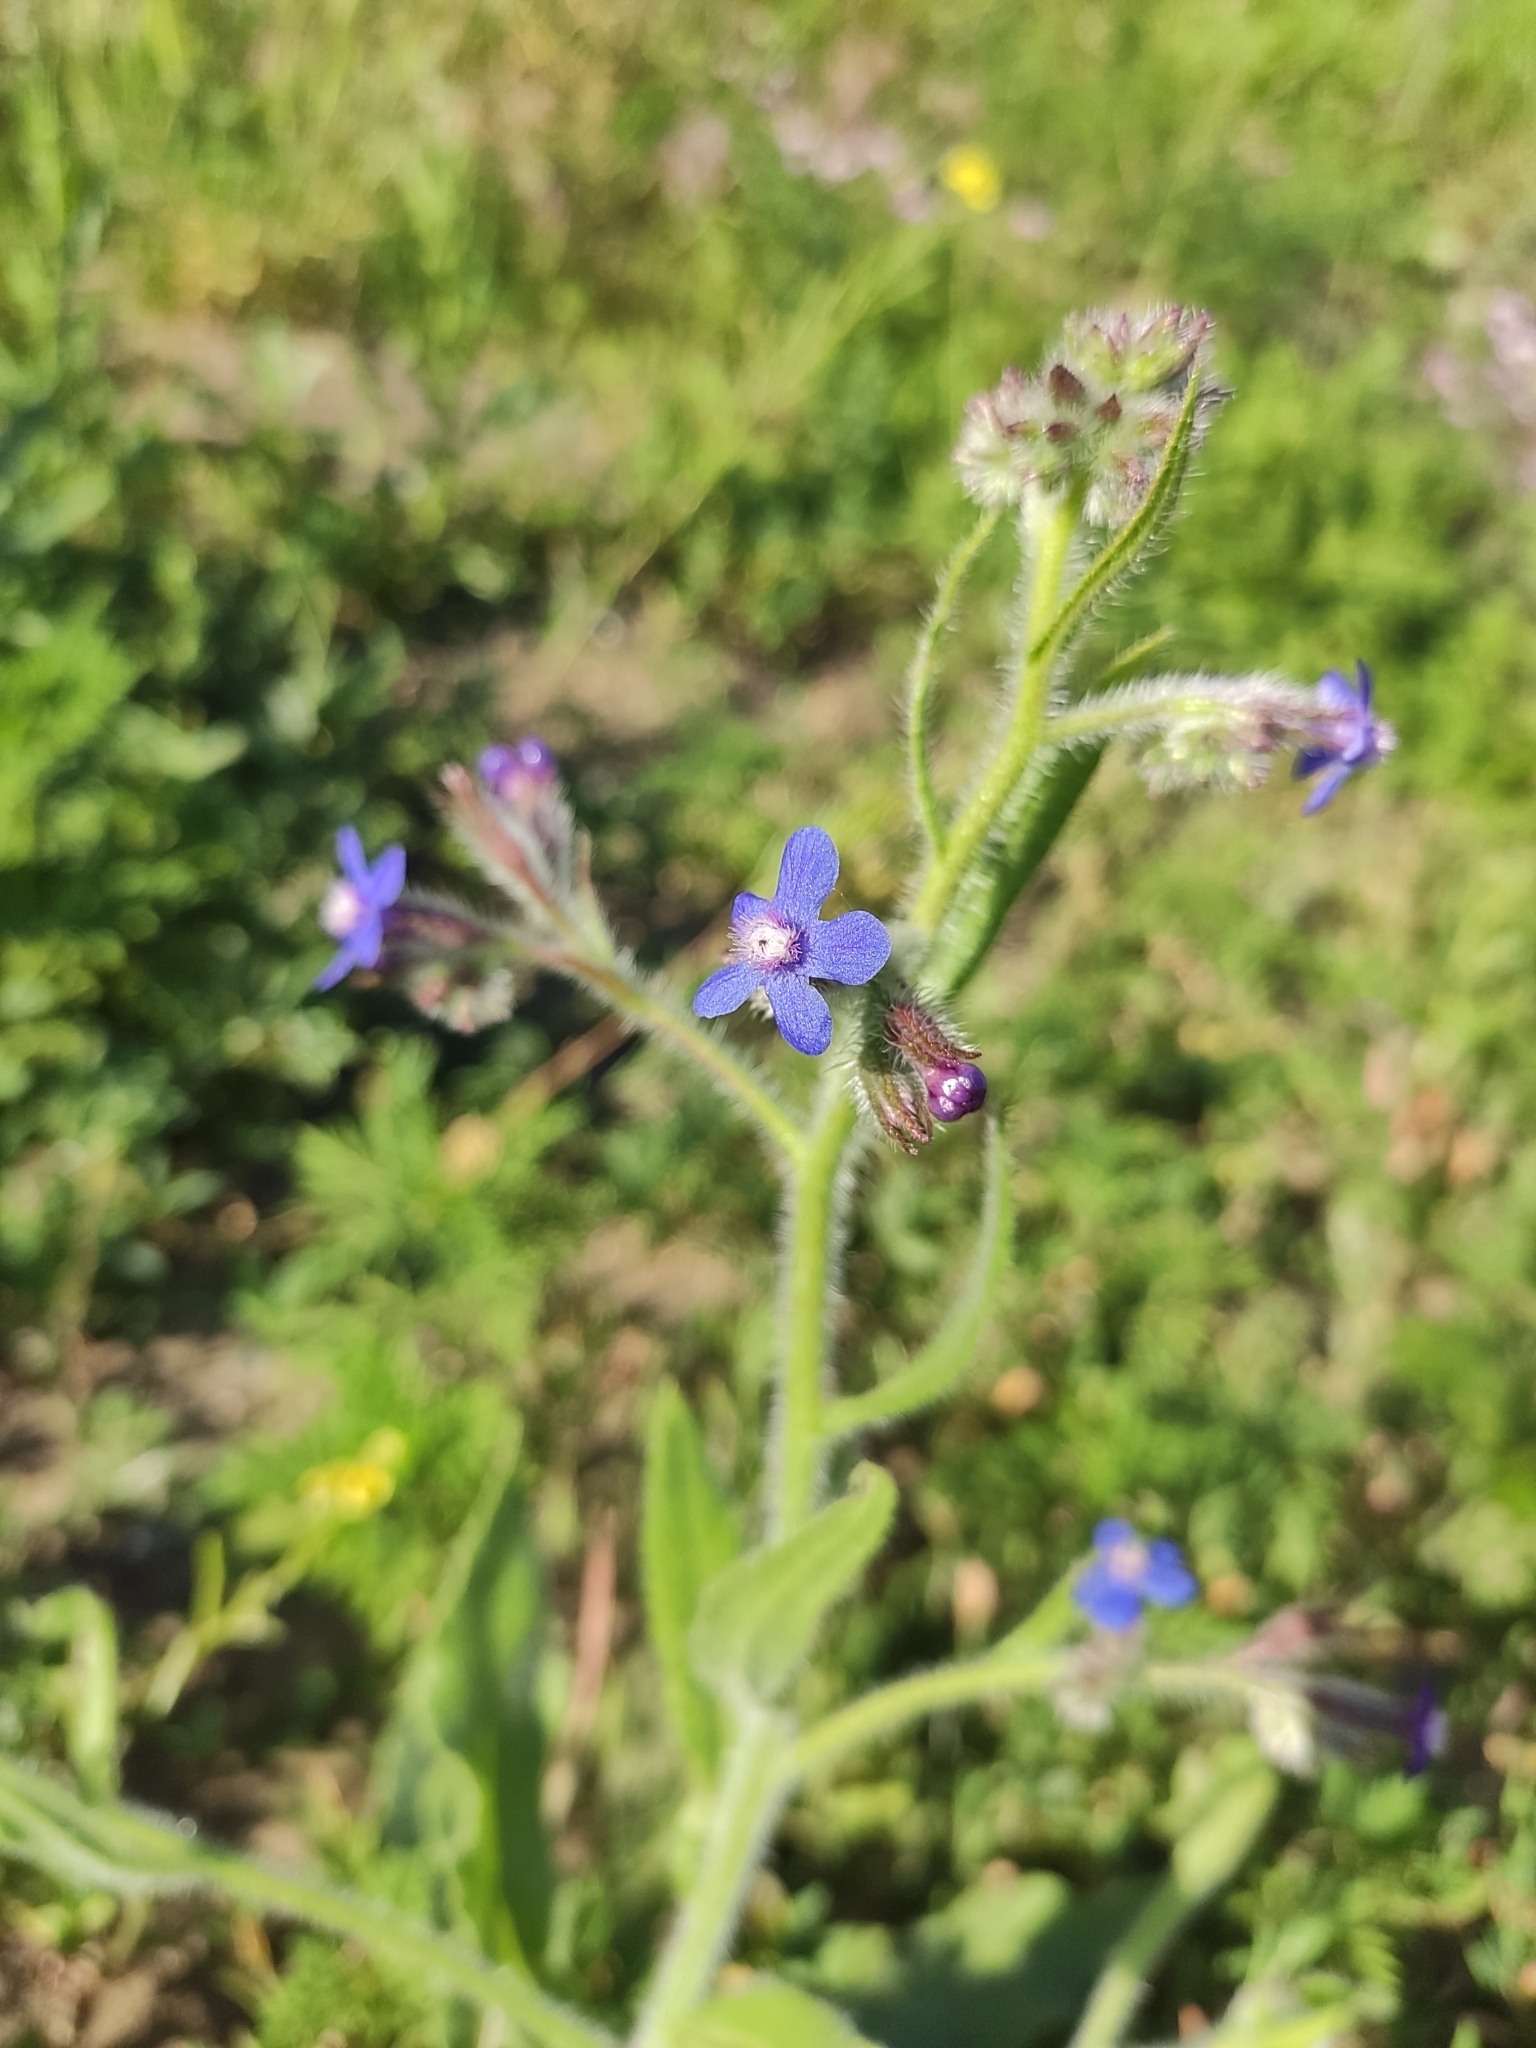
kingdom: Plantae
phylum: Tracheophyta
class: Magnoliopsida
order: Boraginales
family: Boraginaceae
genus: Anchusa
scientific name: Anchusa azurea
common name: Garden anchusa
